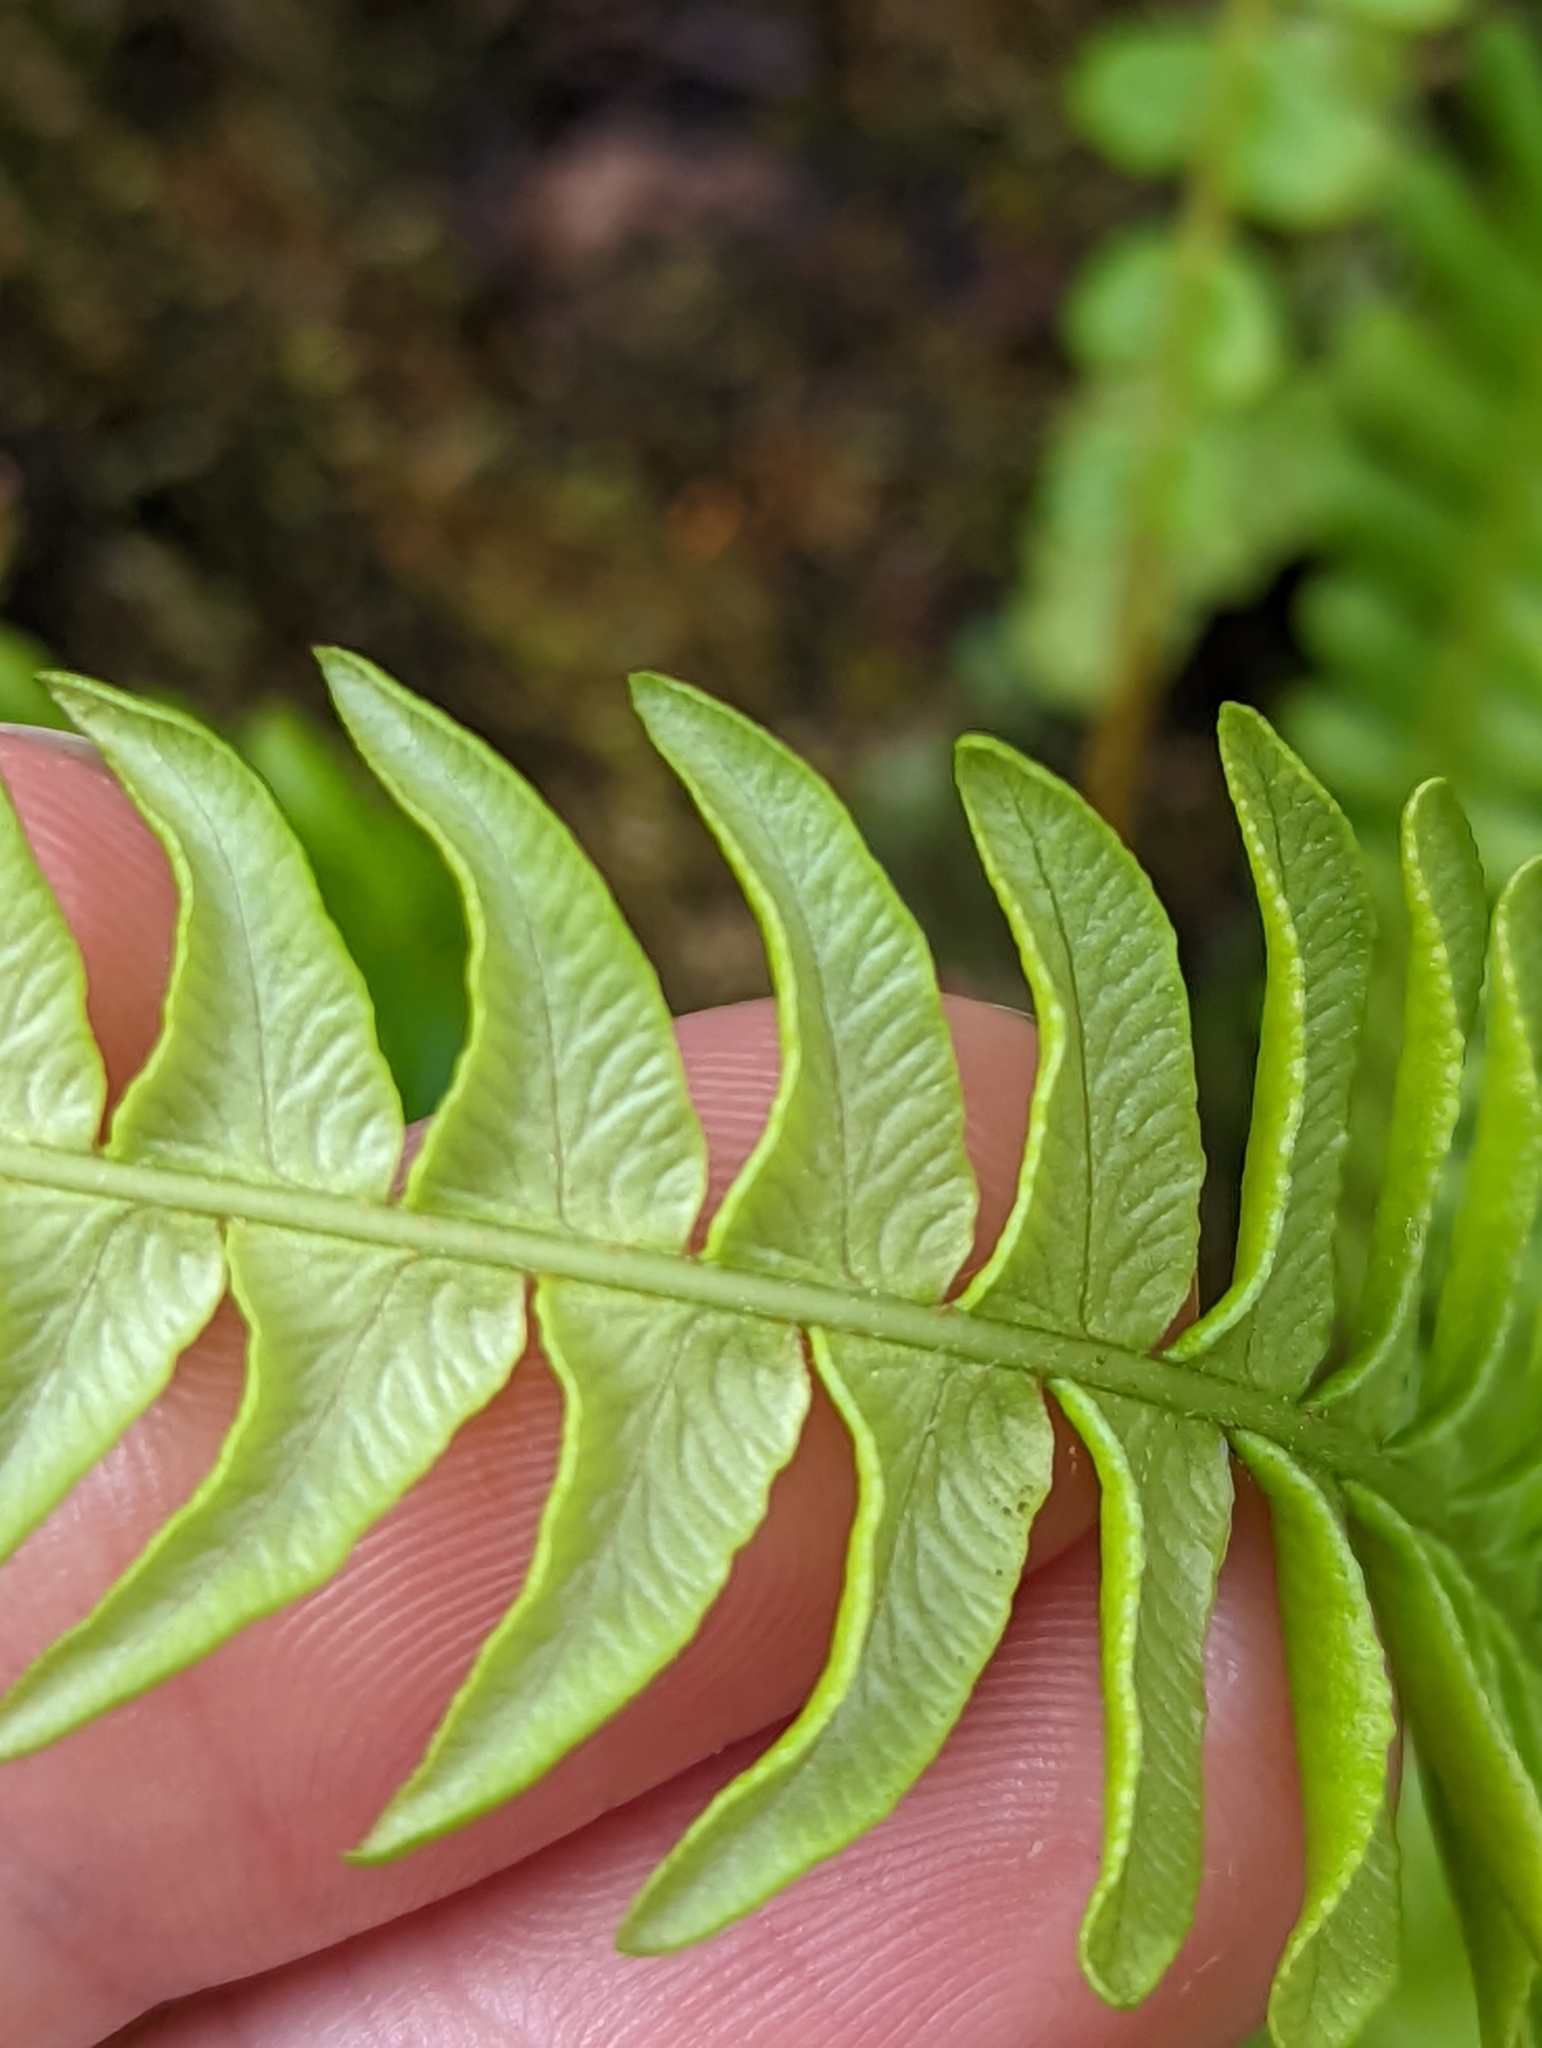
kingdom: Plantae
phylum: Tracheophyta
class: Polypodiopsida
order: Polypodiales
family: Blechnaceae
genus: Struthiopteris
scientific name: Struthiopteris spicant
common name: Deer fern
